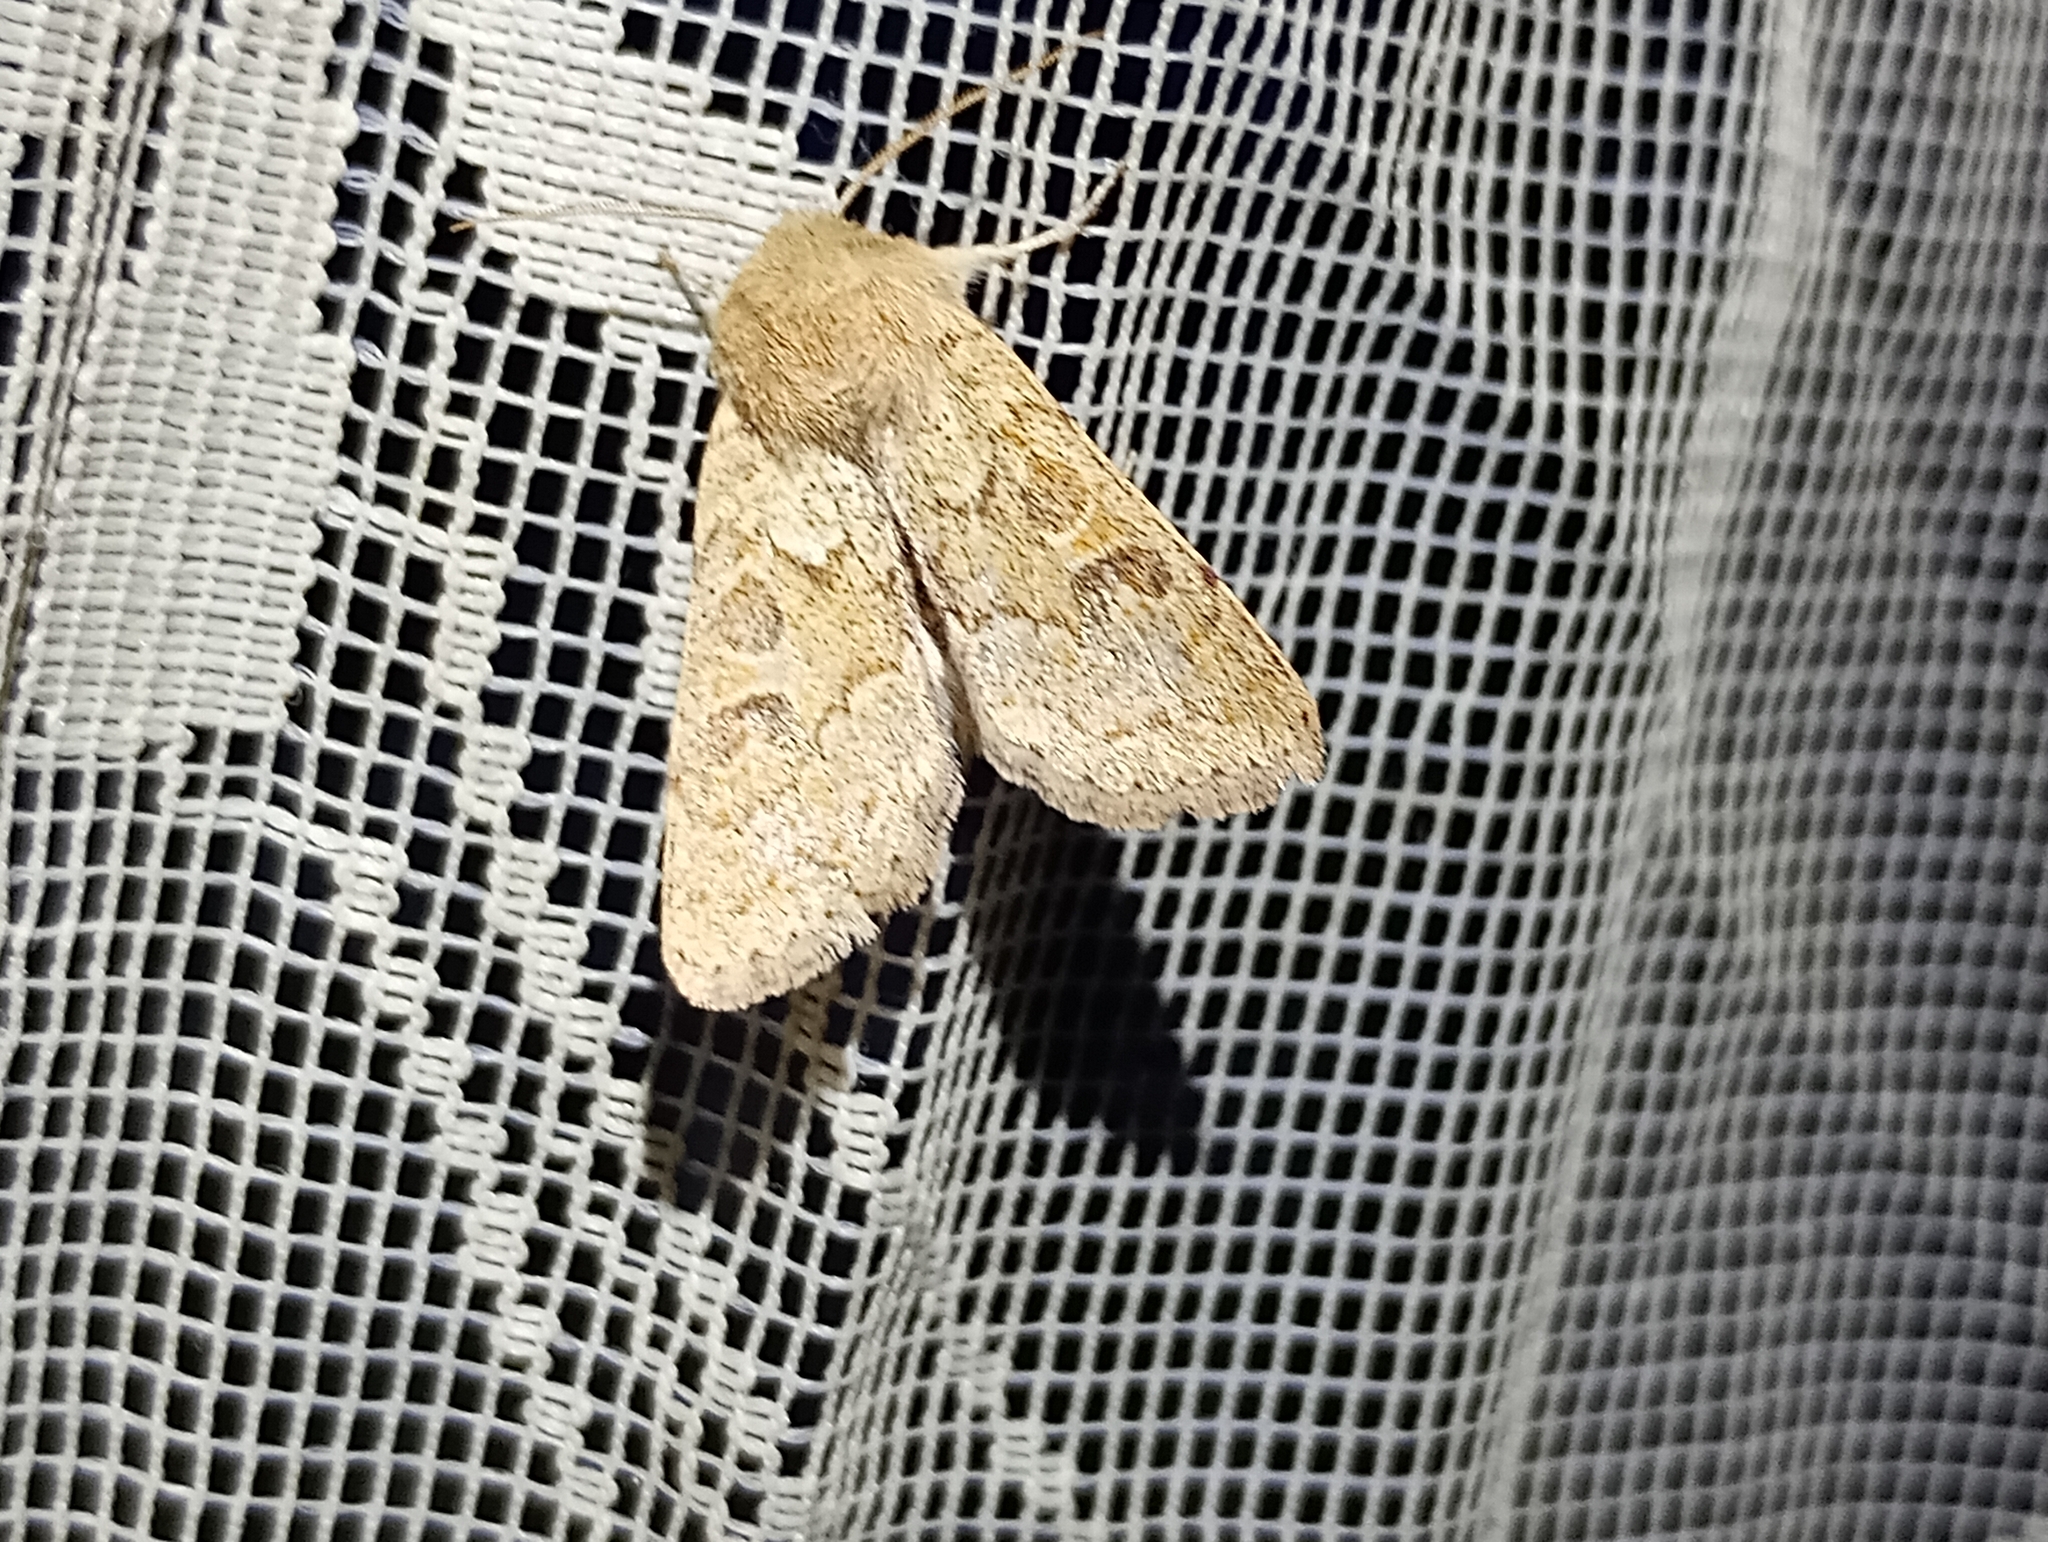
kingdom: Animalia
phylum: Arthropoda
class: Insecta
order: Lepidoptera
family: Noctuidae
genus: Orthosia
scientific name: Orthosia miniosa
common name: Blossom underwing
